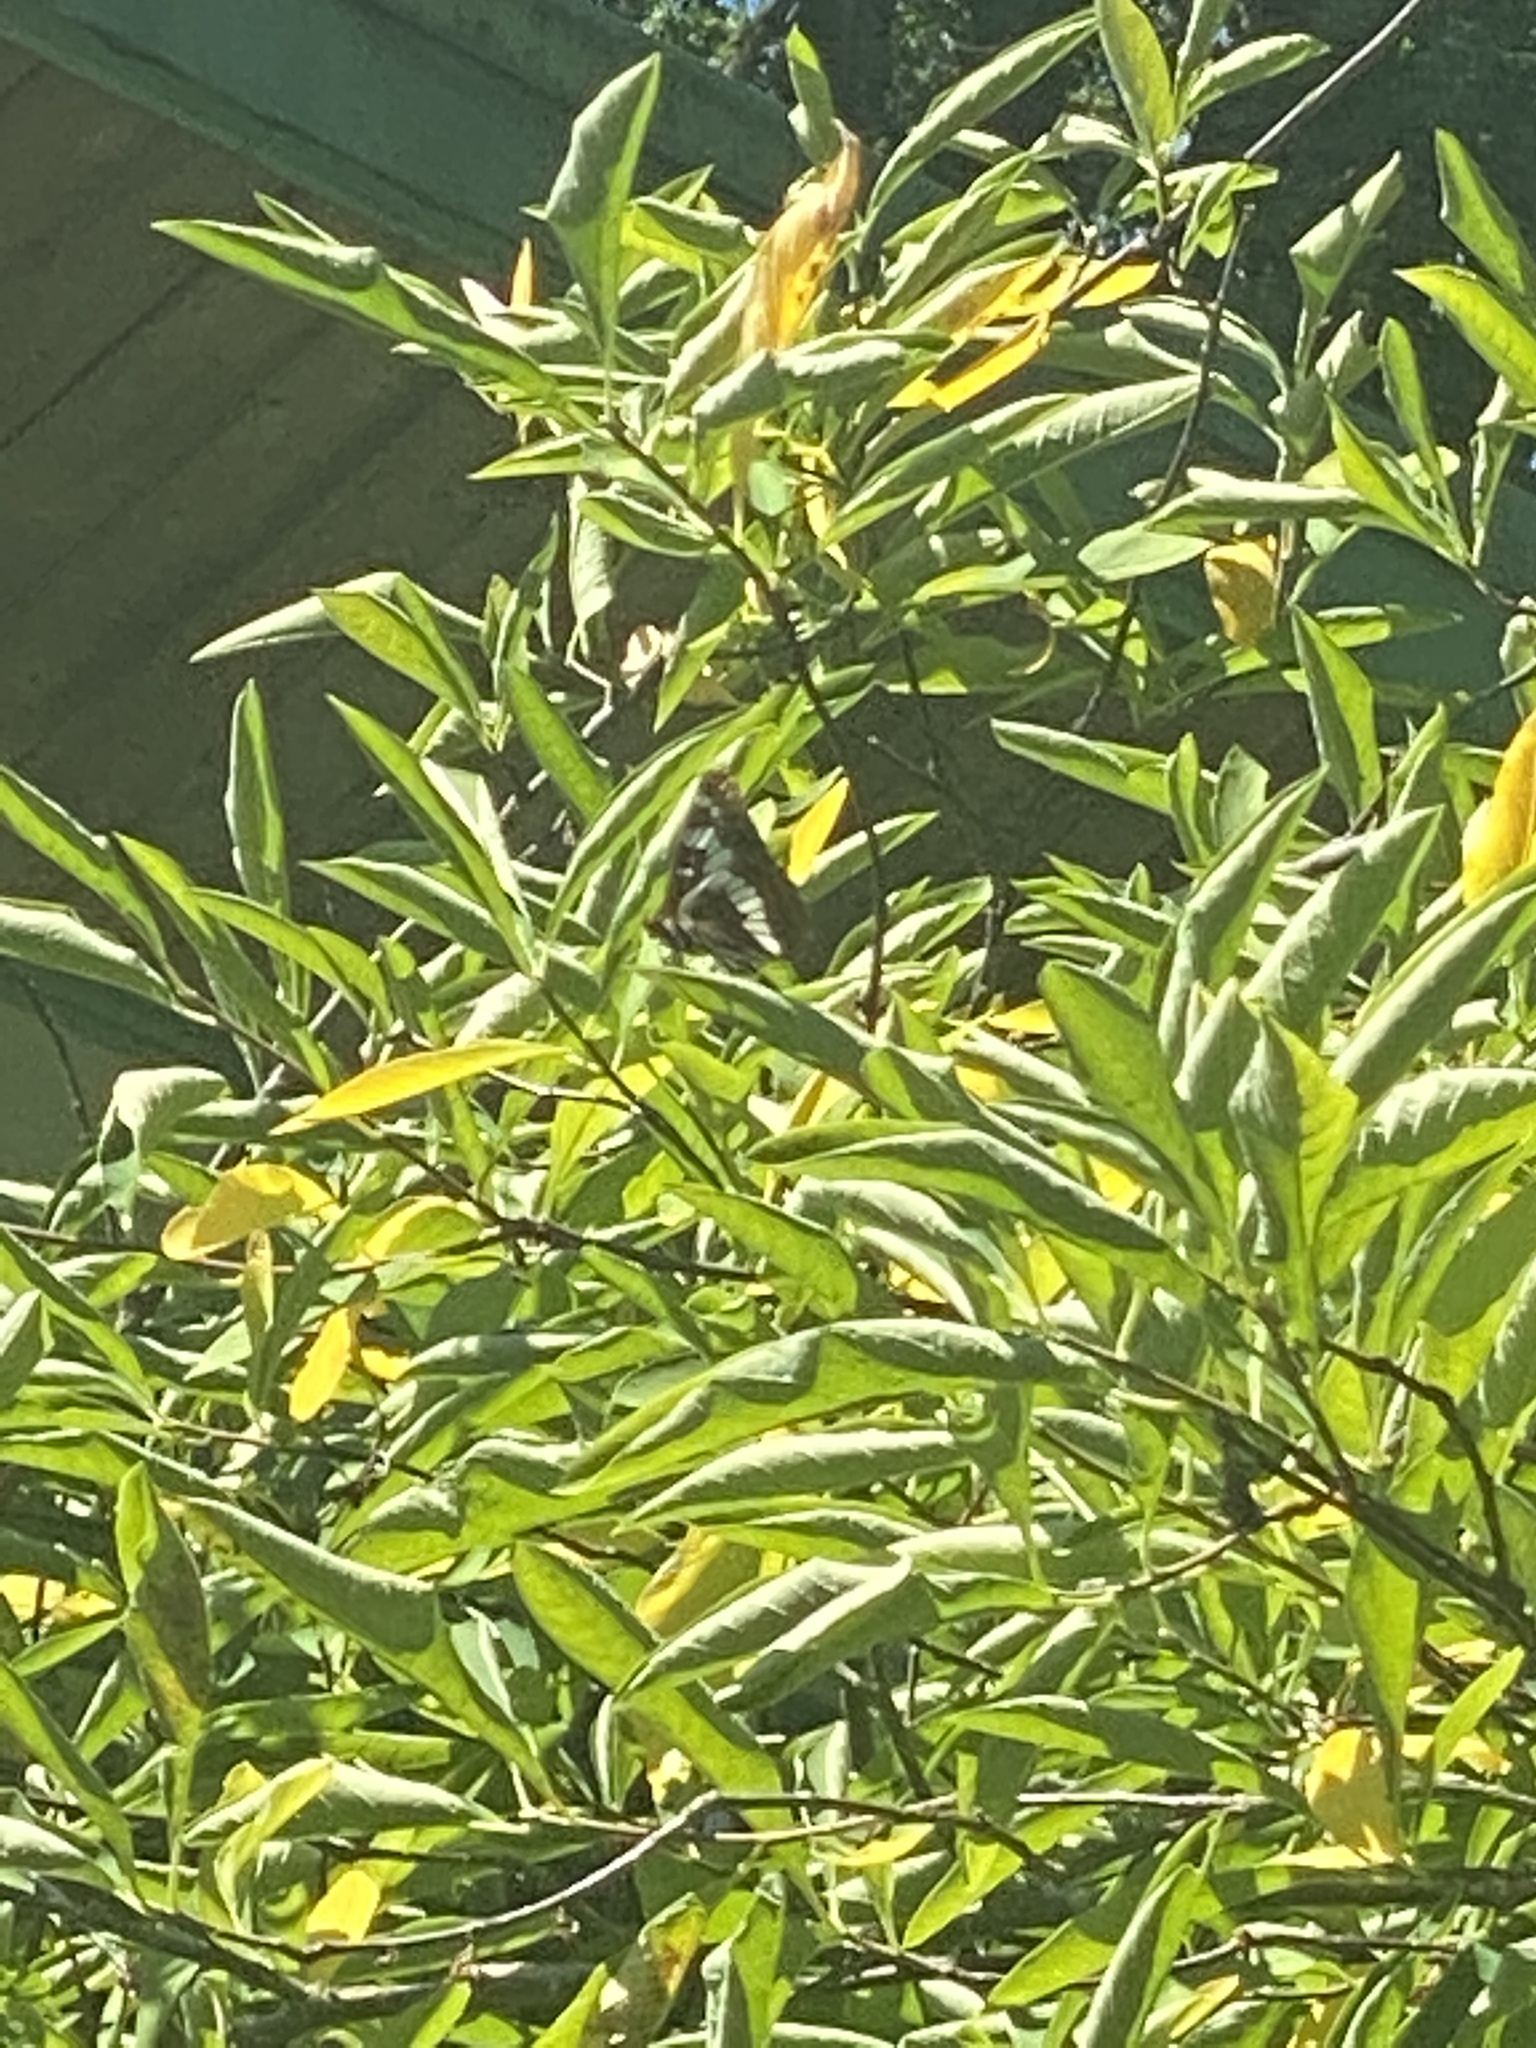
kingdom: Animalia
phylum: Arthropoda
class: Insecta
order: Lepidoptera
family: Nymphalidae
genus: Limenitis
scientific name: Limenitis lorquini
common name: Lorquin's admiral
